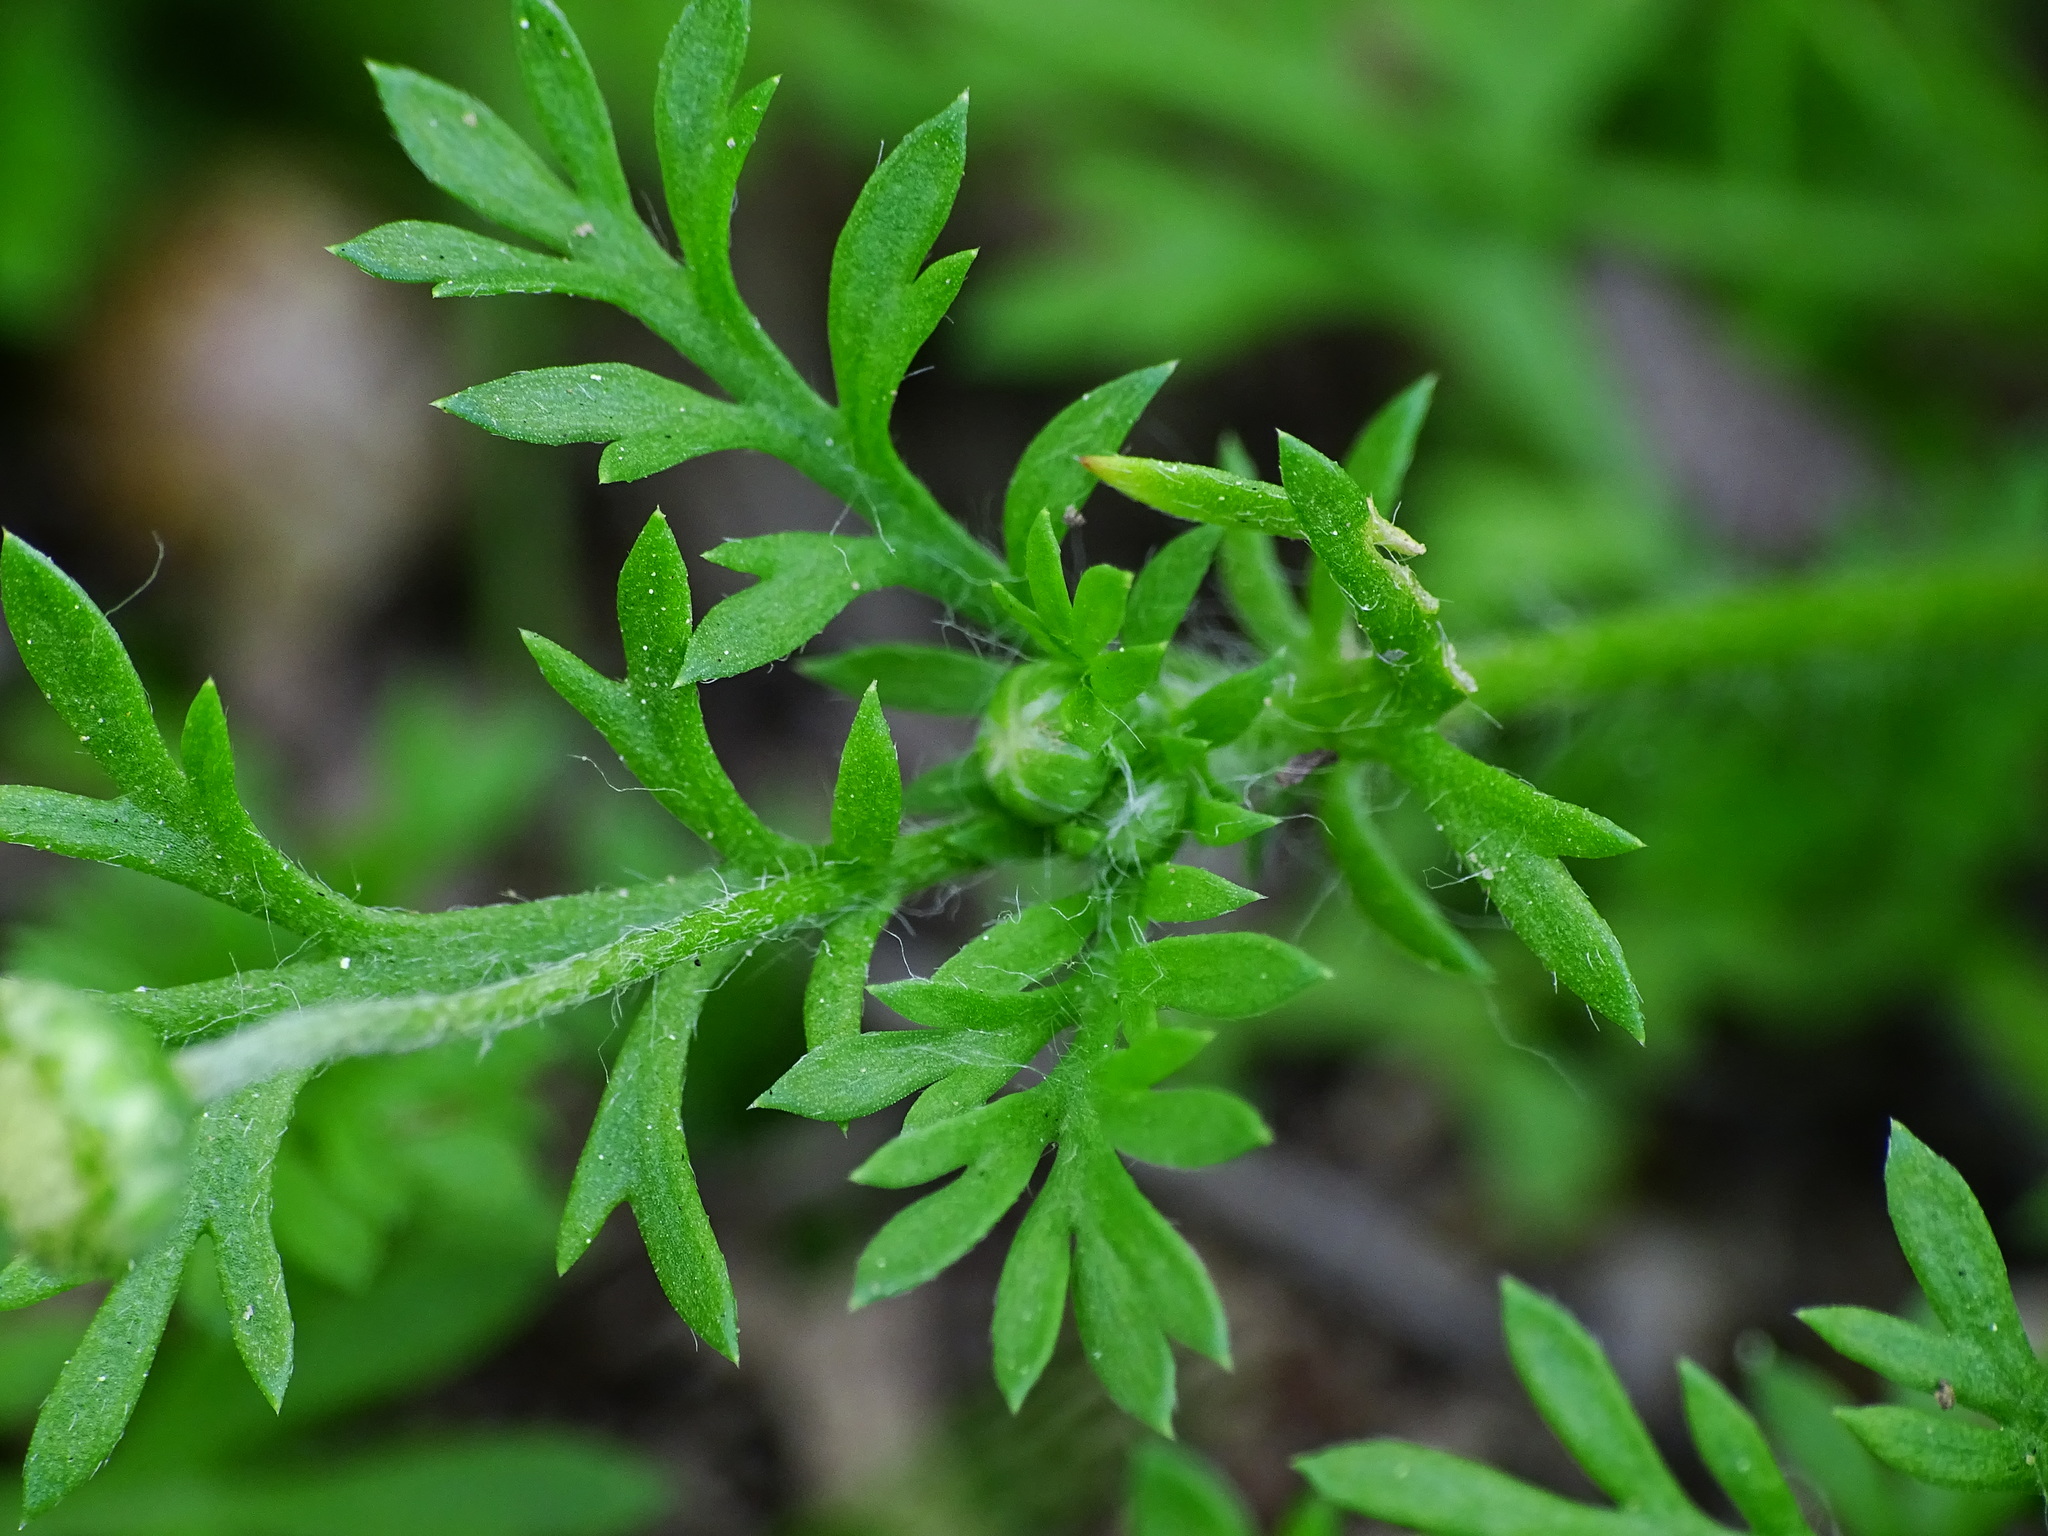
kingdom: Plantae
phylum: Tracheophyta
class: Magnoliopsida
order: Asterales
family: Asteraceae
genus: Cotula
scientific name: Cotula australis
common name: Australian waterbuttons
